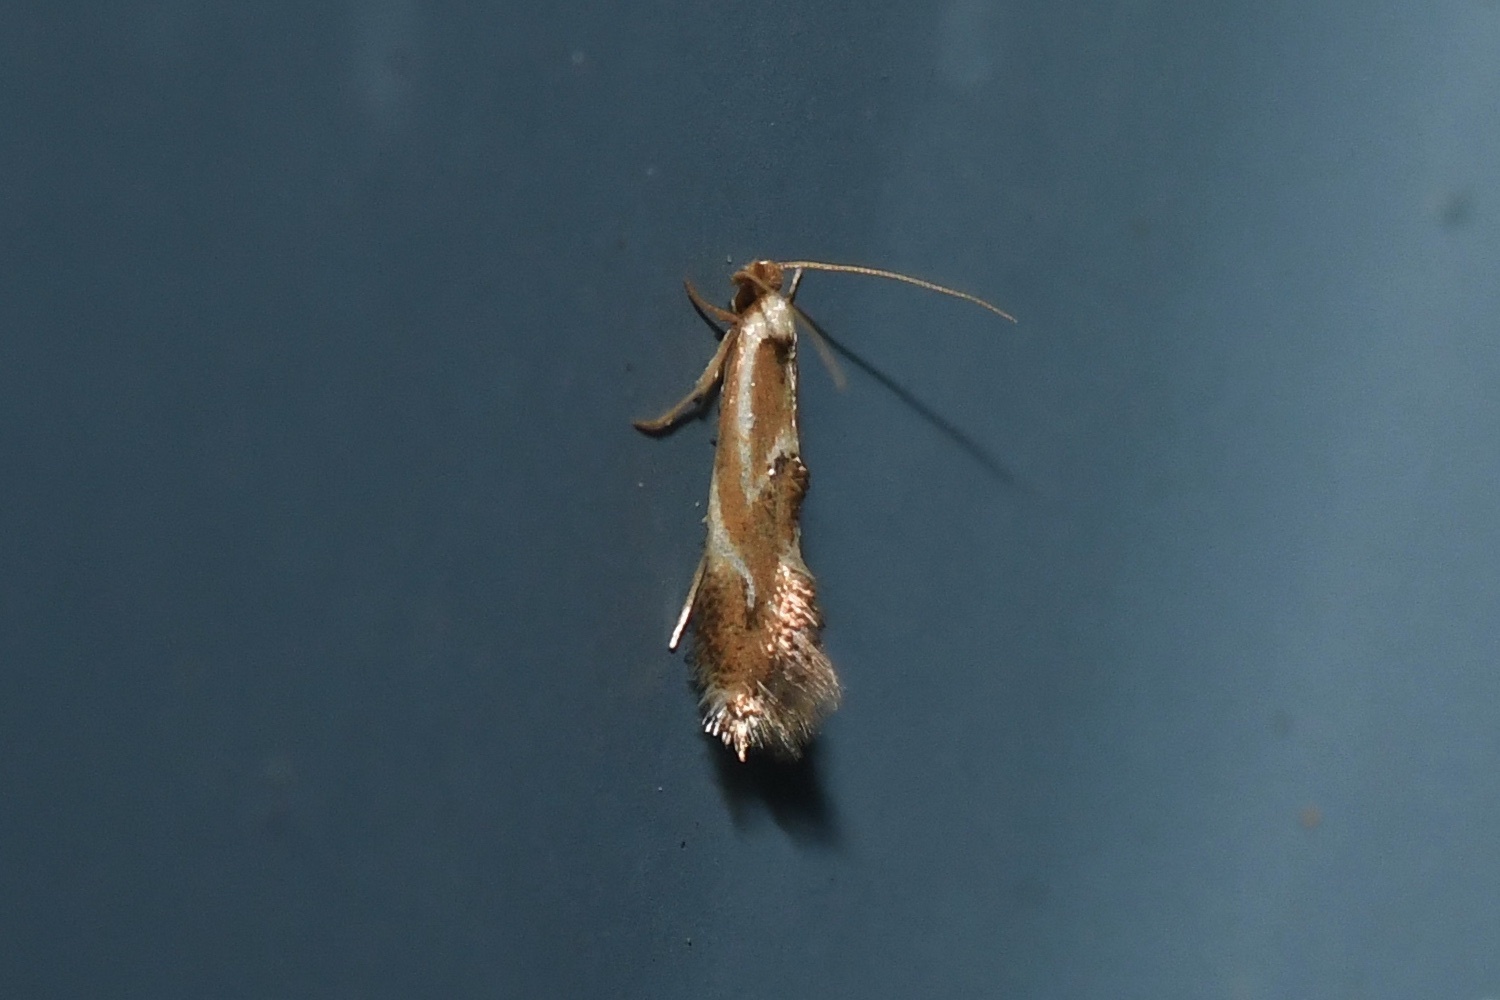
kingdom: Animalia
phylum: Arthropoda
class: Insecta
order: Lepidoptera
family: Lyonetiidae
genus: Philonome
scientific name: Philonome clemensella
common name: Clemen's philonome moth
